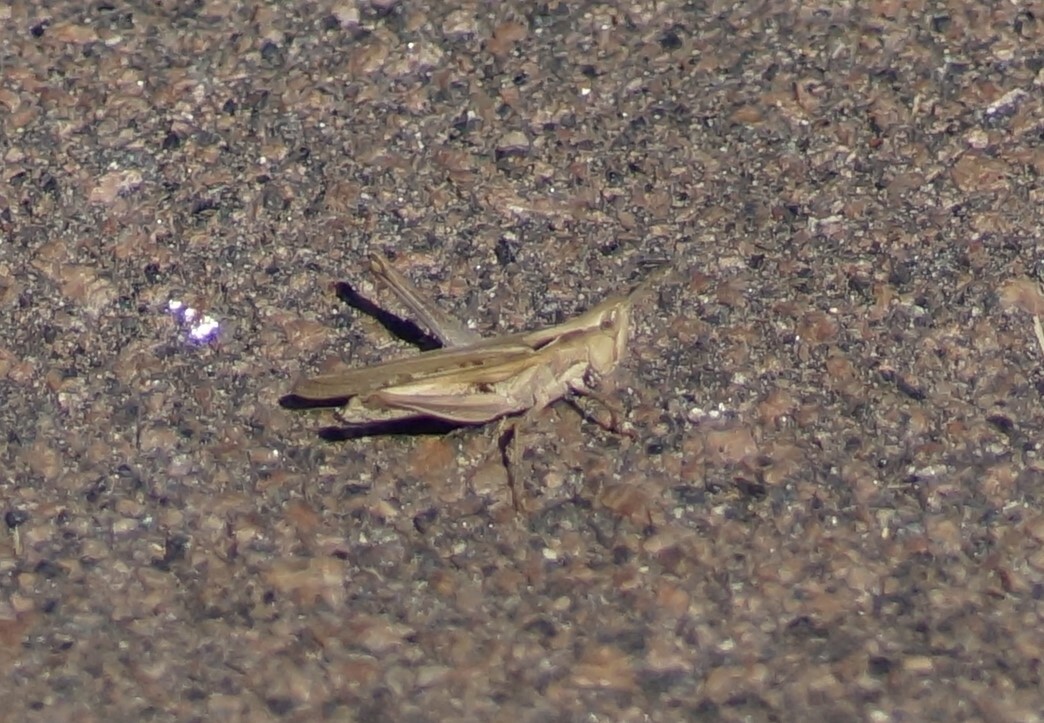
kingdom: Animalia
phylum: Arthropoda
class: Insecta
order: Orthoptera
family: Acrididae
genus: Froggattina
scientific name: Froggattina australis
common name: Froggatt's buzzer
